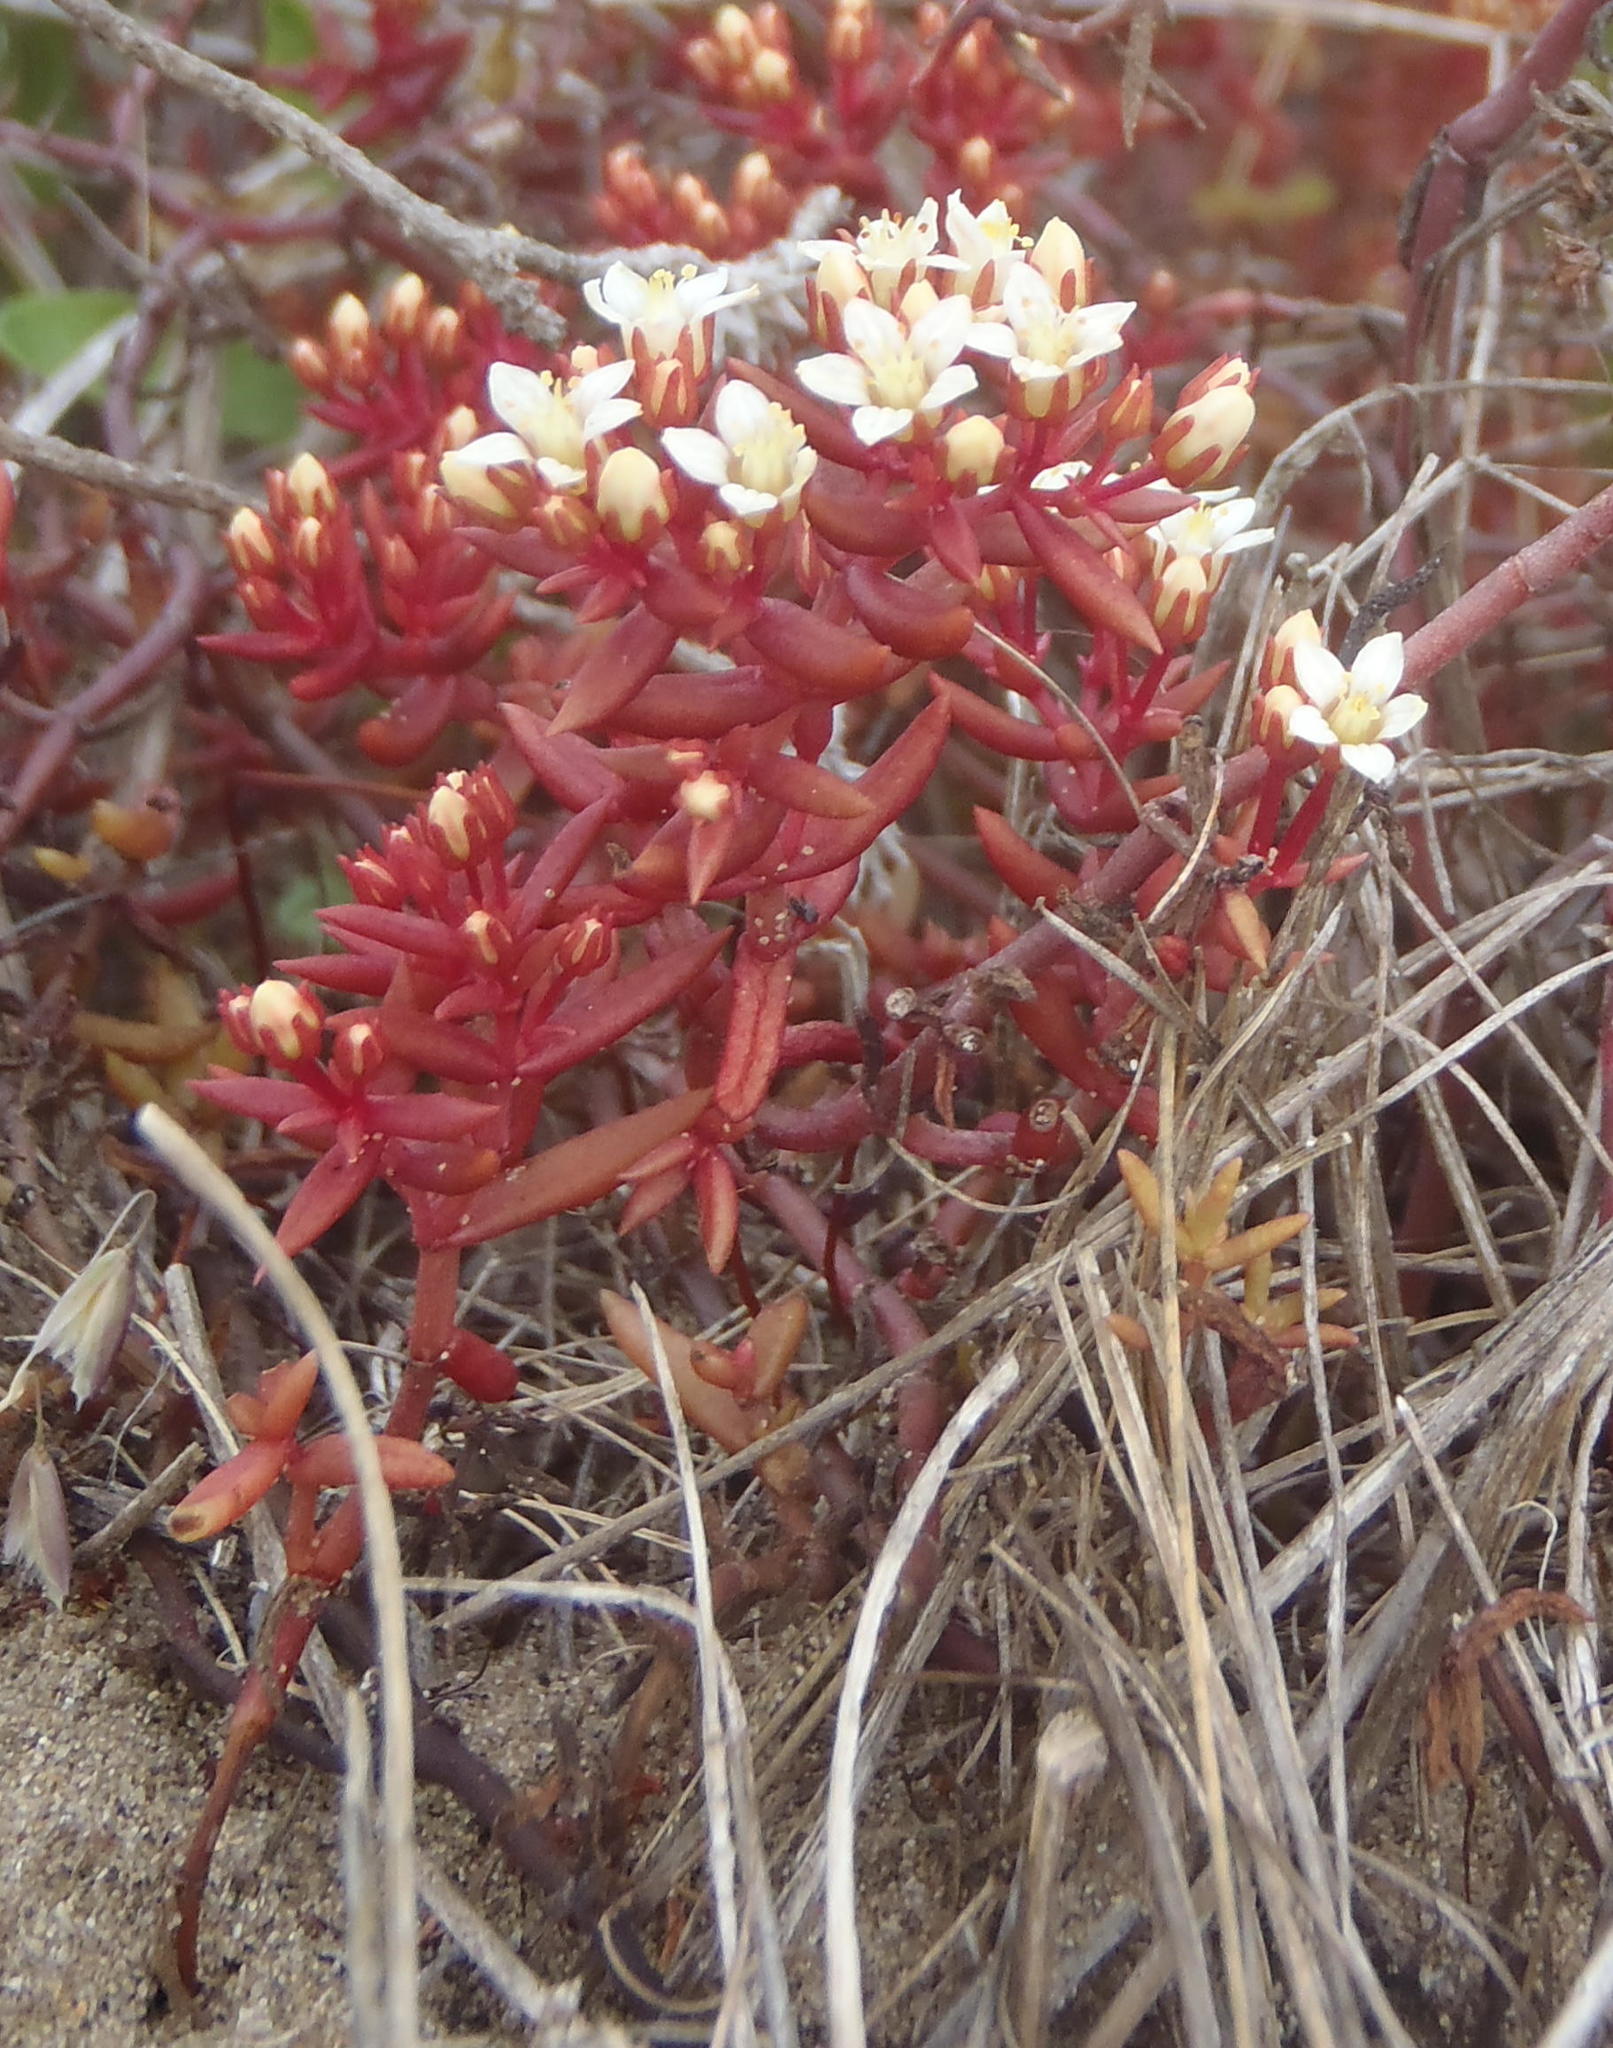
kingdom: Plantae
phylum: Tracheophyta
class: Magnoliopsida
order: Saxifragales
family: Crassulaceae
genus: Crassula
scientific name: Crassula expansa
